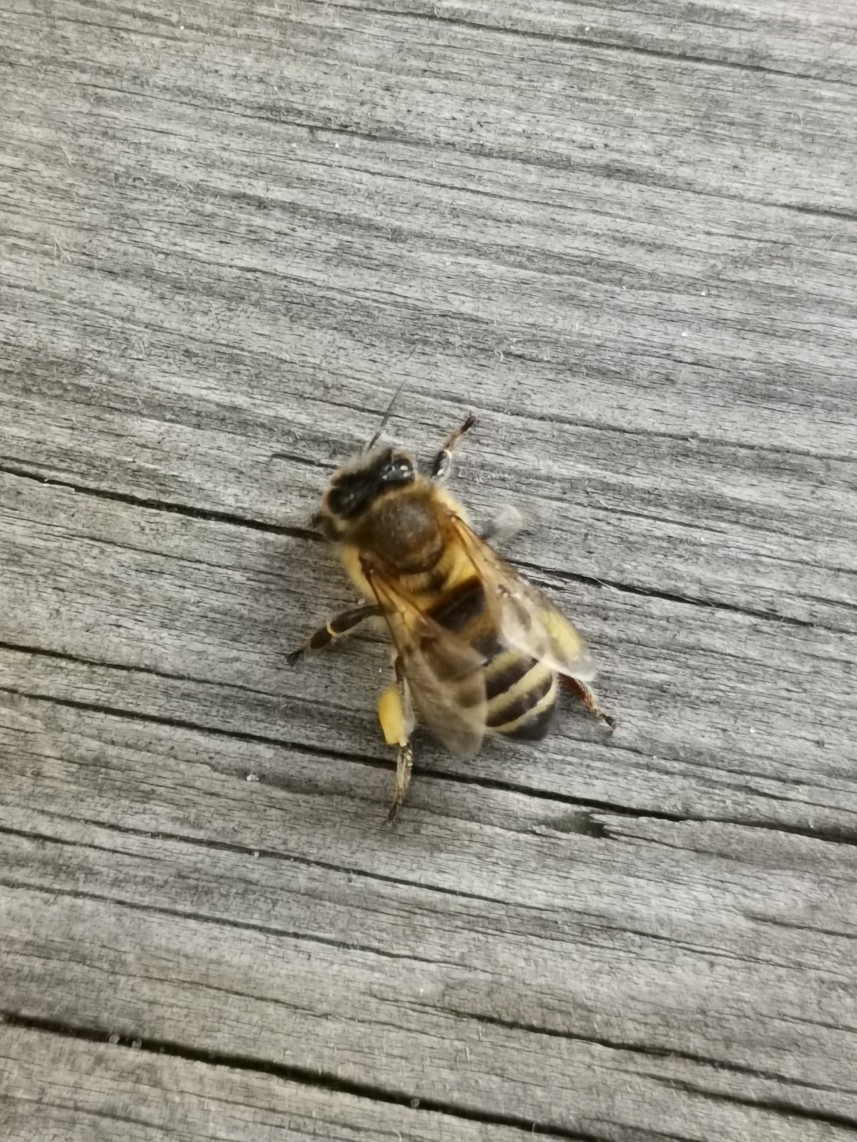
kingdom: Animalia
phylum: Arthropoda
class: Insecta
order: Hymenoptera
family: Apidae
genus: Apis
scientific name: Apis mellifera
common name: Honey bee
